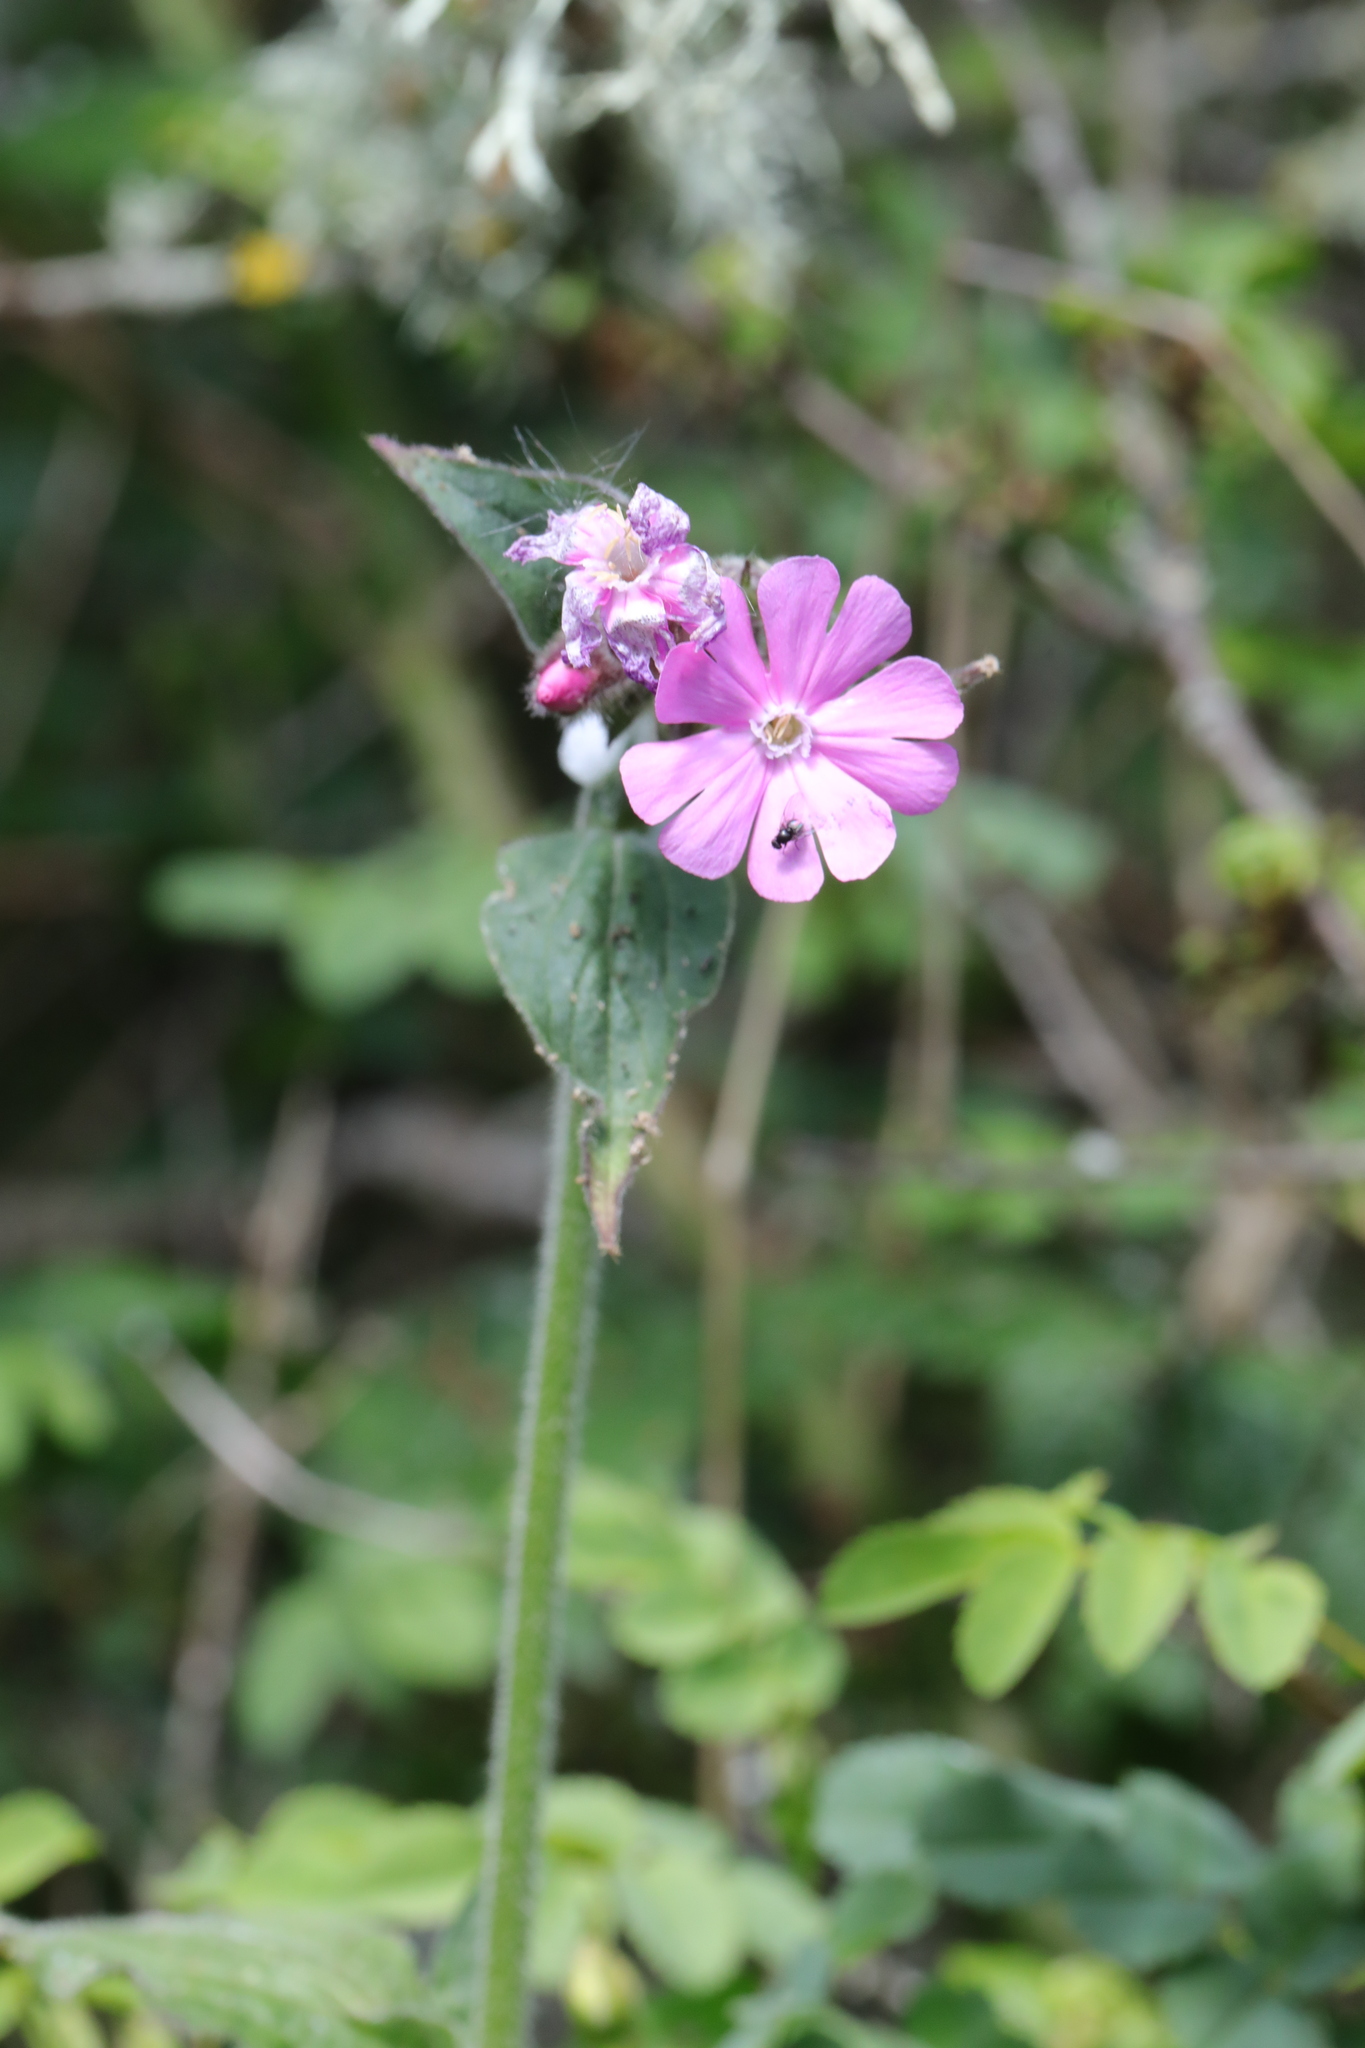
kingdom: Plantae
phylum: Tracheophyta
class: Magnoliopsida
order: Caryophyllales
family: Caryophyllaceae
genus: Silene
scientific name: Silene dioica
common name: Red campion
